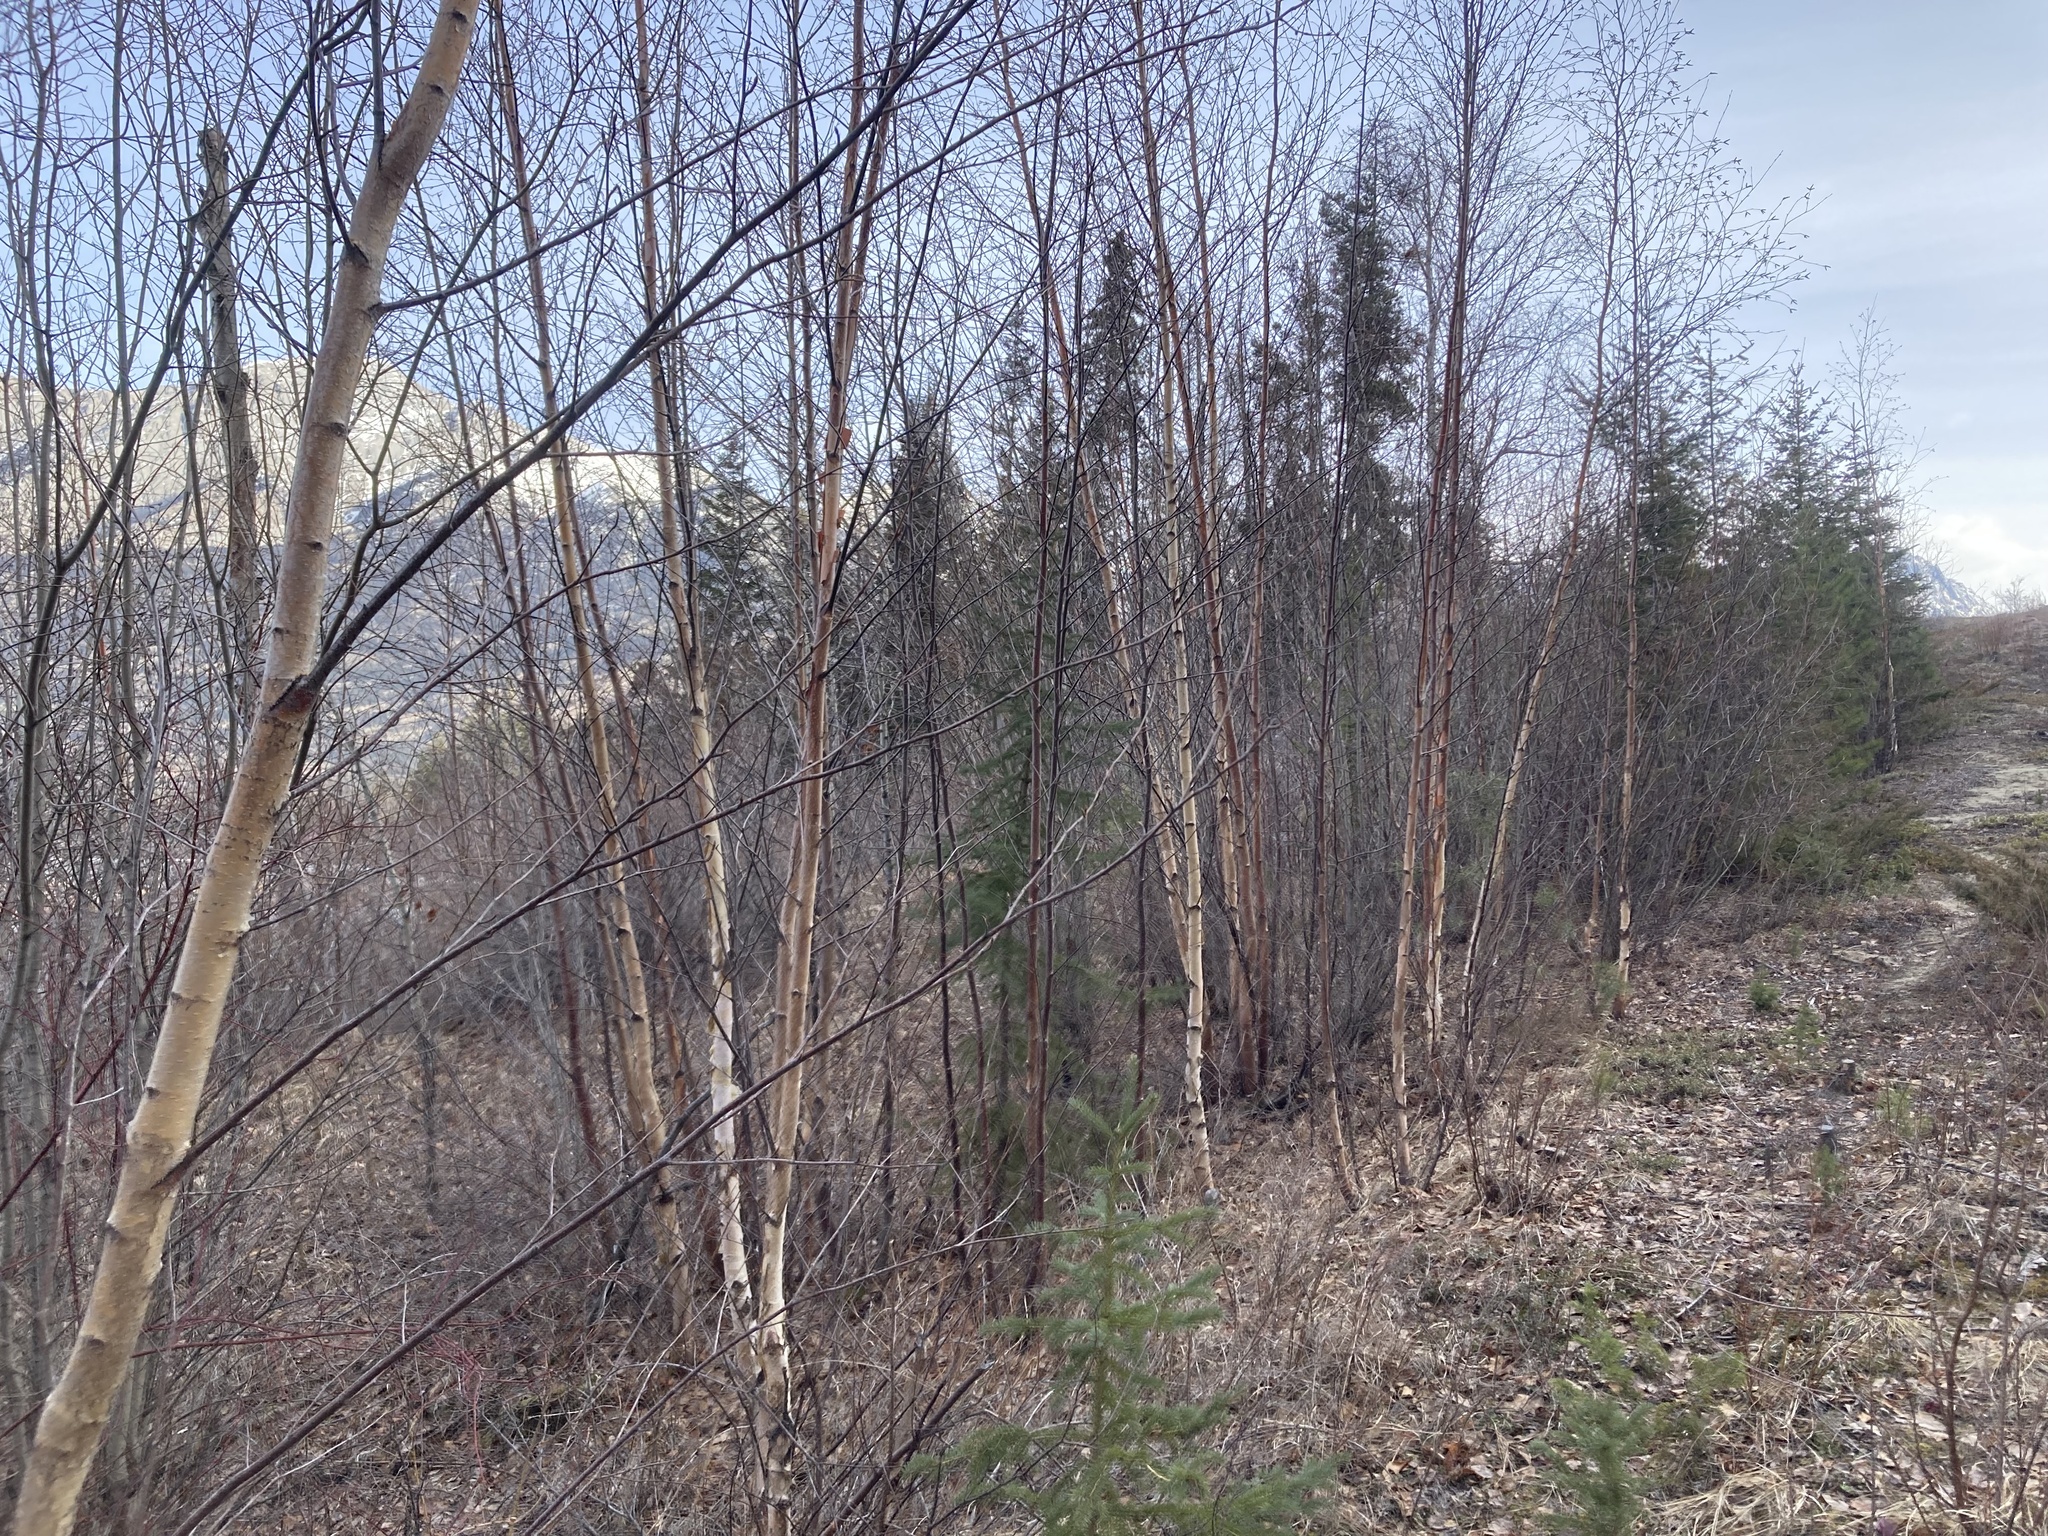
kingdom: Plantae
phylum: Tracheophyta
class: Magnoliopsida
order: Fagales
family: Betulaceae
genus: Betula
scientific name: Betula papyrifera
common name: Paper birch
